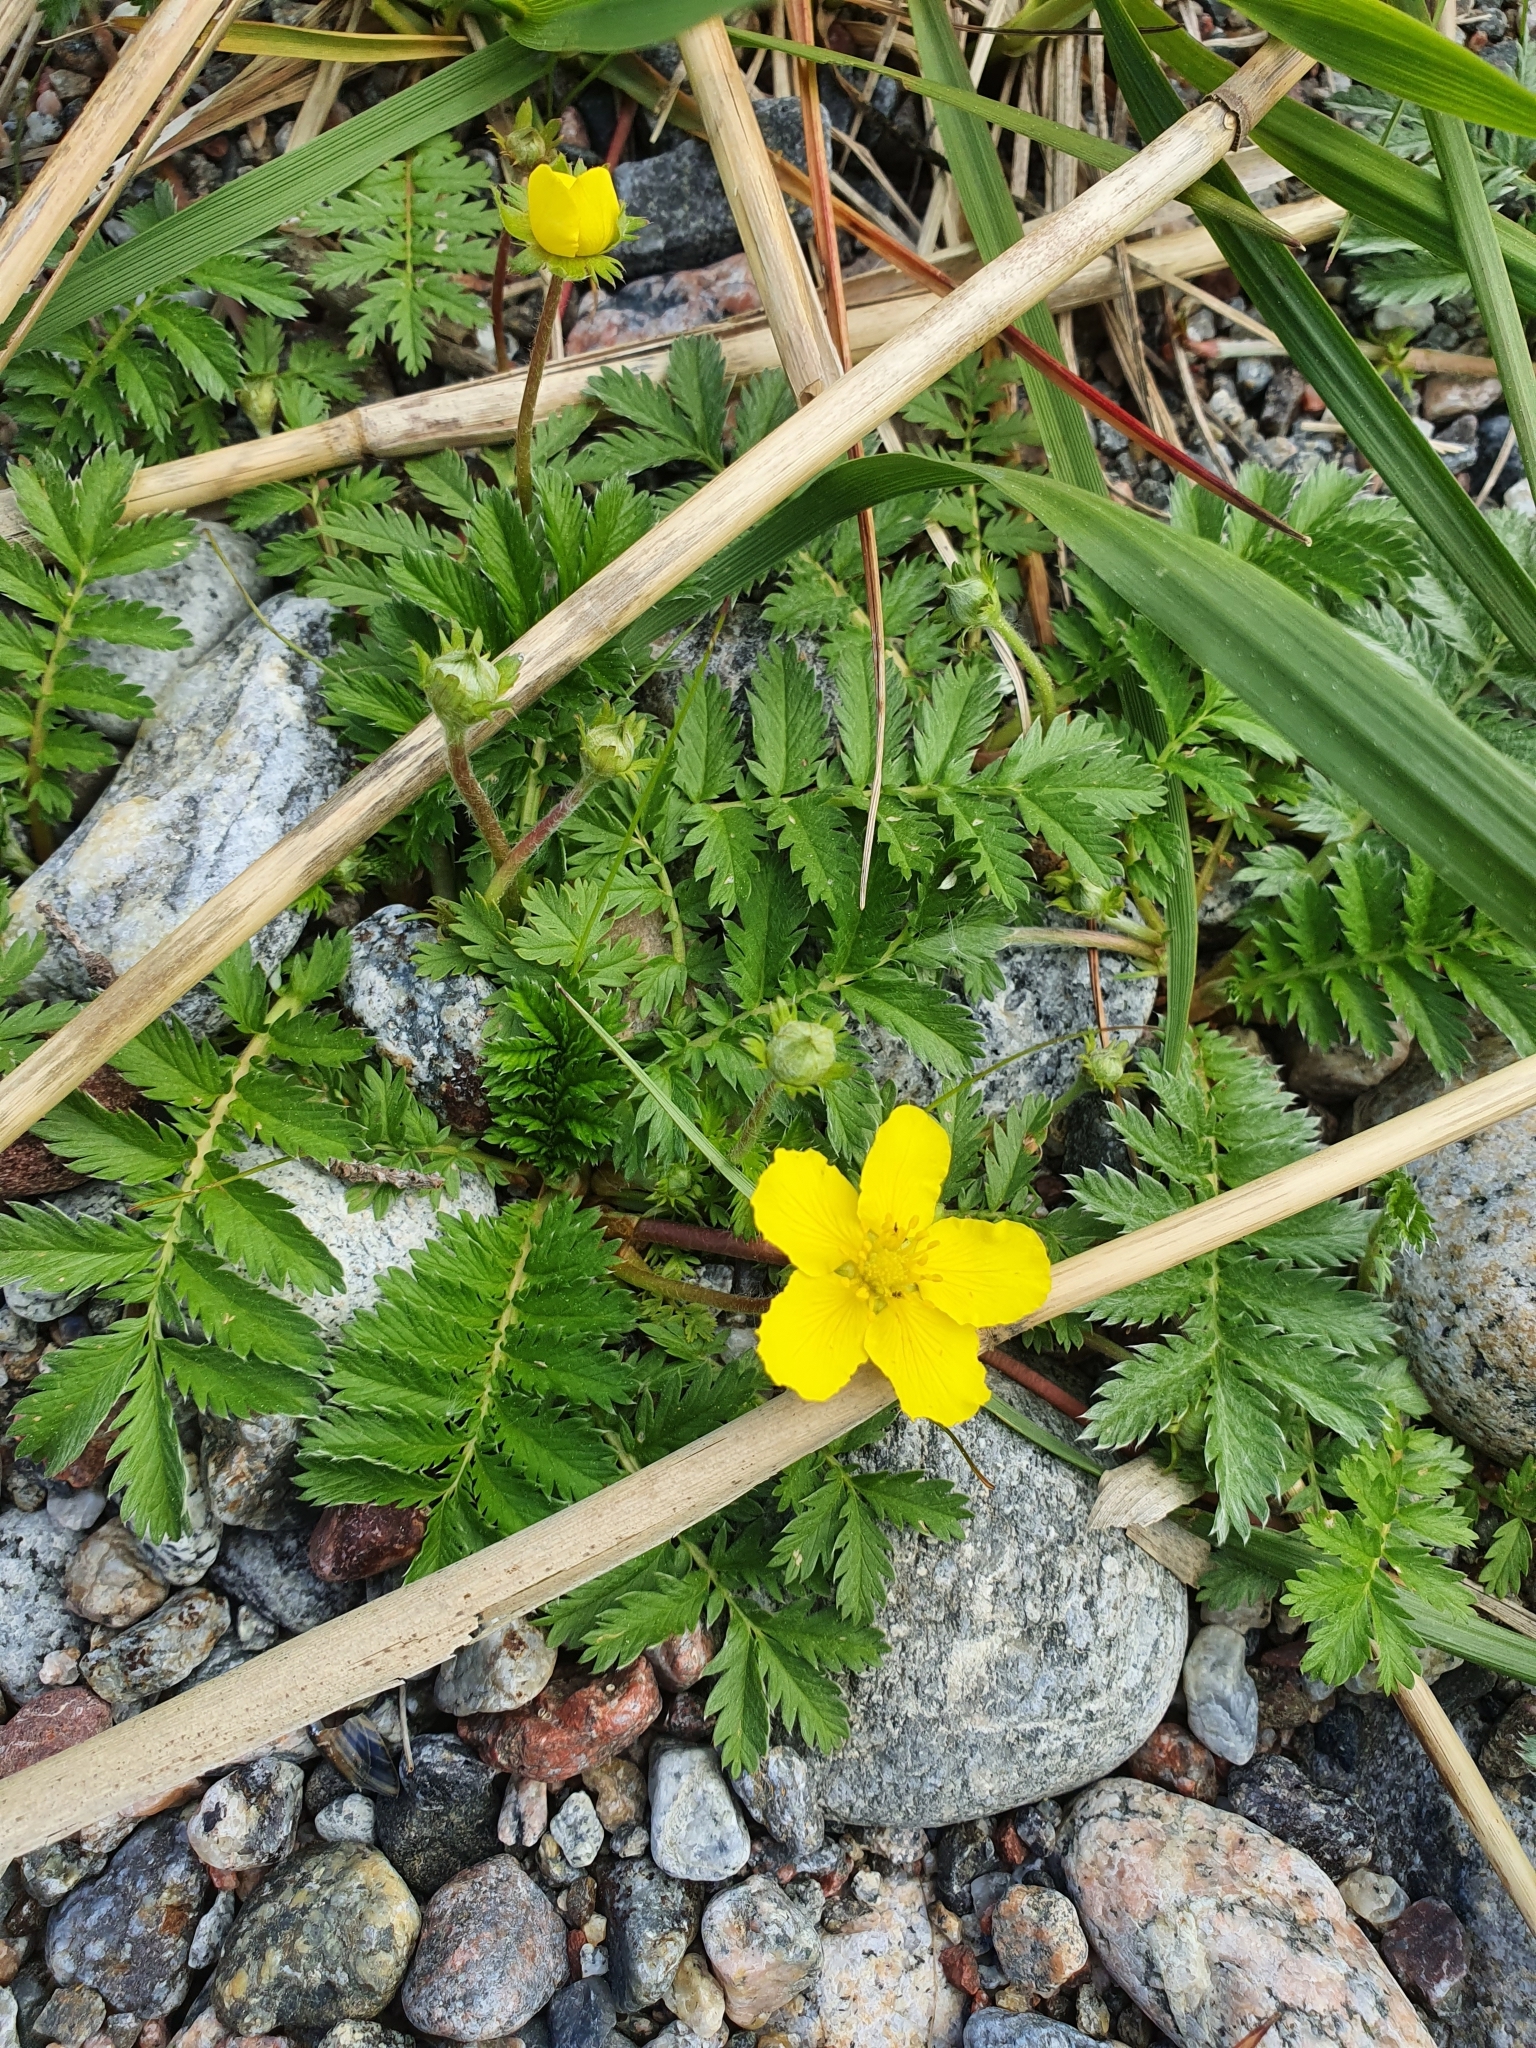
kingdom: Plantae
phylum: Tracheophyta
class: Magnoliopsida
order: Rosales
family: Rosaceae
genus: Argentina
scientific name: Argentina anserina
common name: Common silverweed
